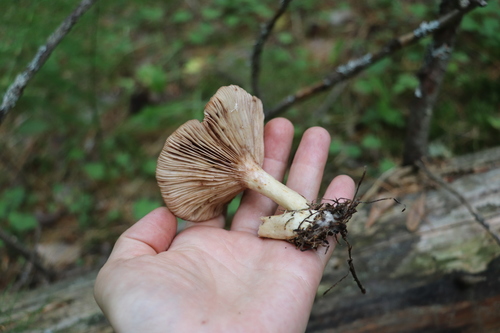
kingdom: Fungi
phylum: Basidiomycota
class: Agaricomycetes
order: Russulales
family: Russulaceae
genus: Lactarius
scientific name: Lactarius uvidus
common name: Shiner milkcap
